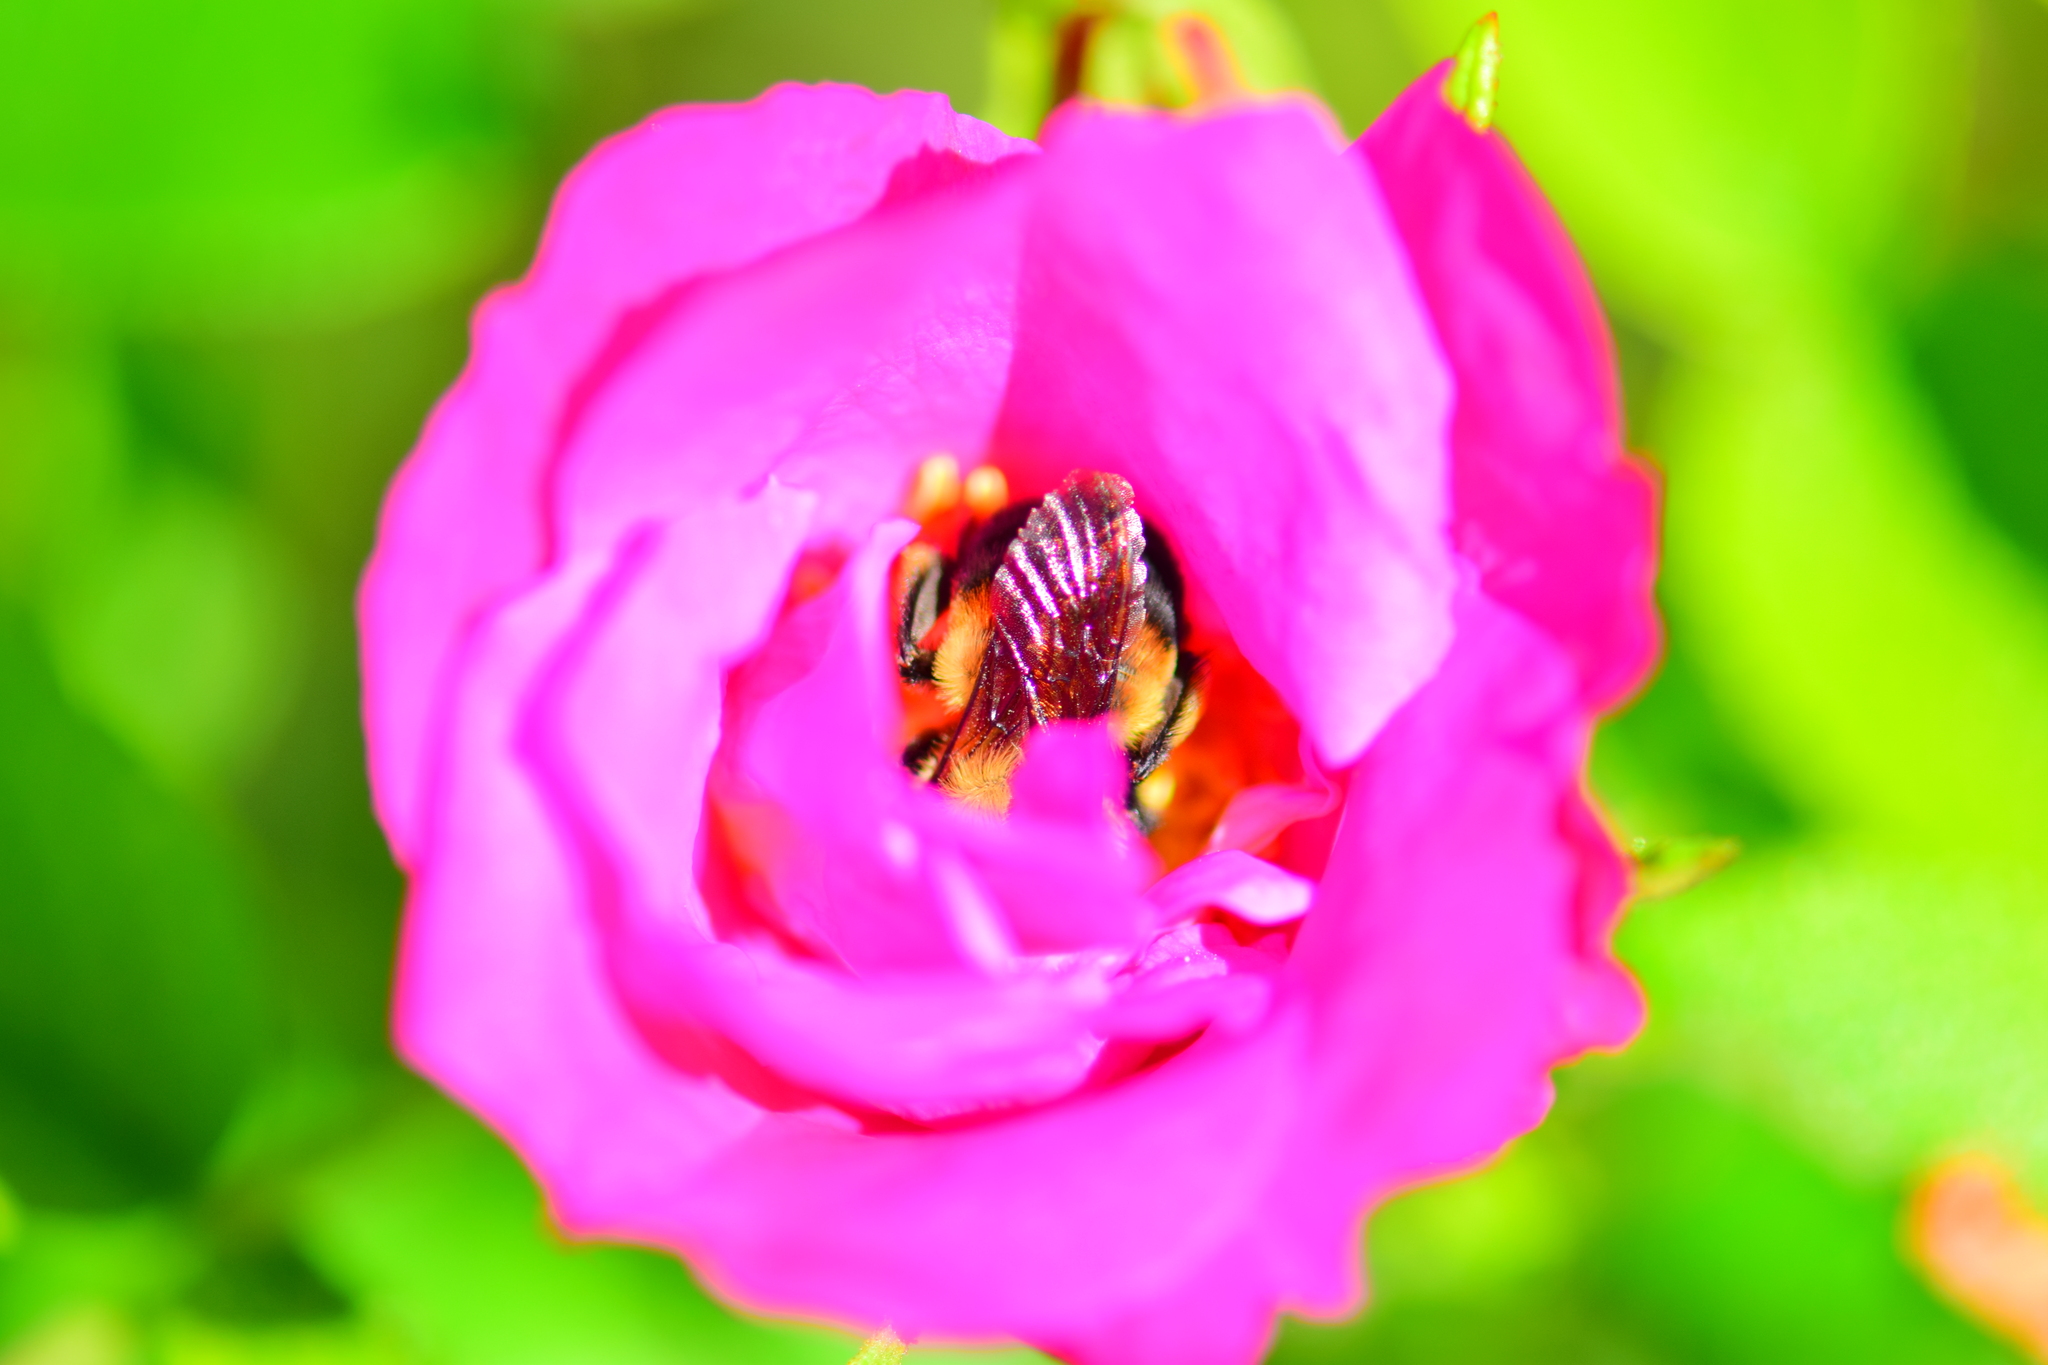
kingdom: Animalia
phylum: Arthropoda
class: Insecta
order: Hymenoptera
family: Apidae
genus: Bombus
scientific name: Bombus griseocollis
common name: Brown-belted bumble bee
